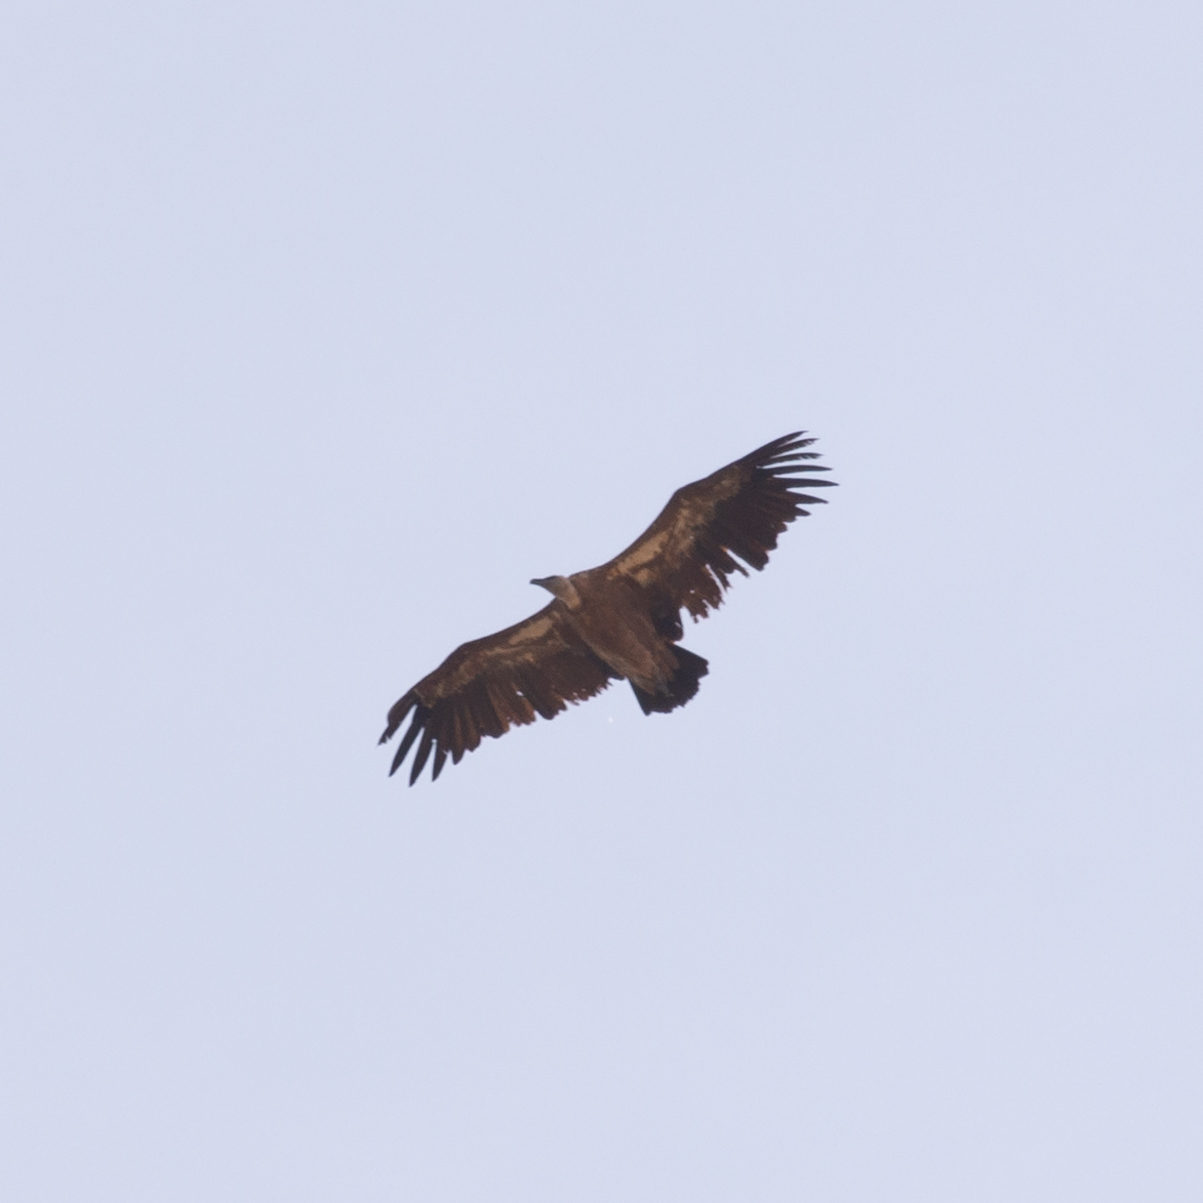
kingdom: Animalia
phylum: Chordata
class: Aves
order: Accipitriformes
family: Accipitridae
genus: Gyps
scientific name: Gyps fulvus
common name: Griffon vulture
